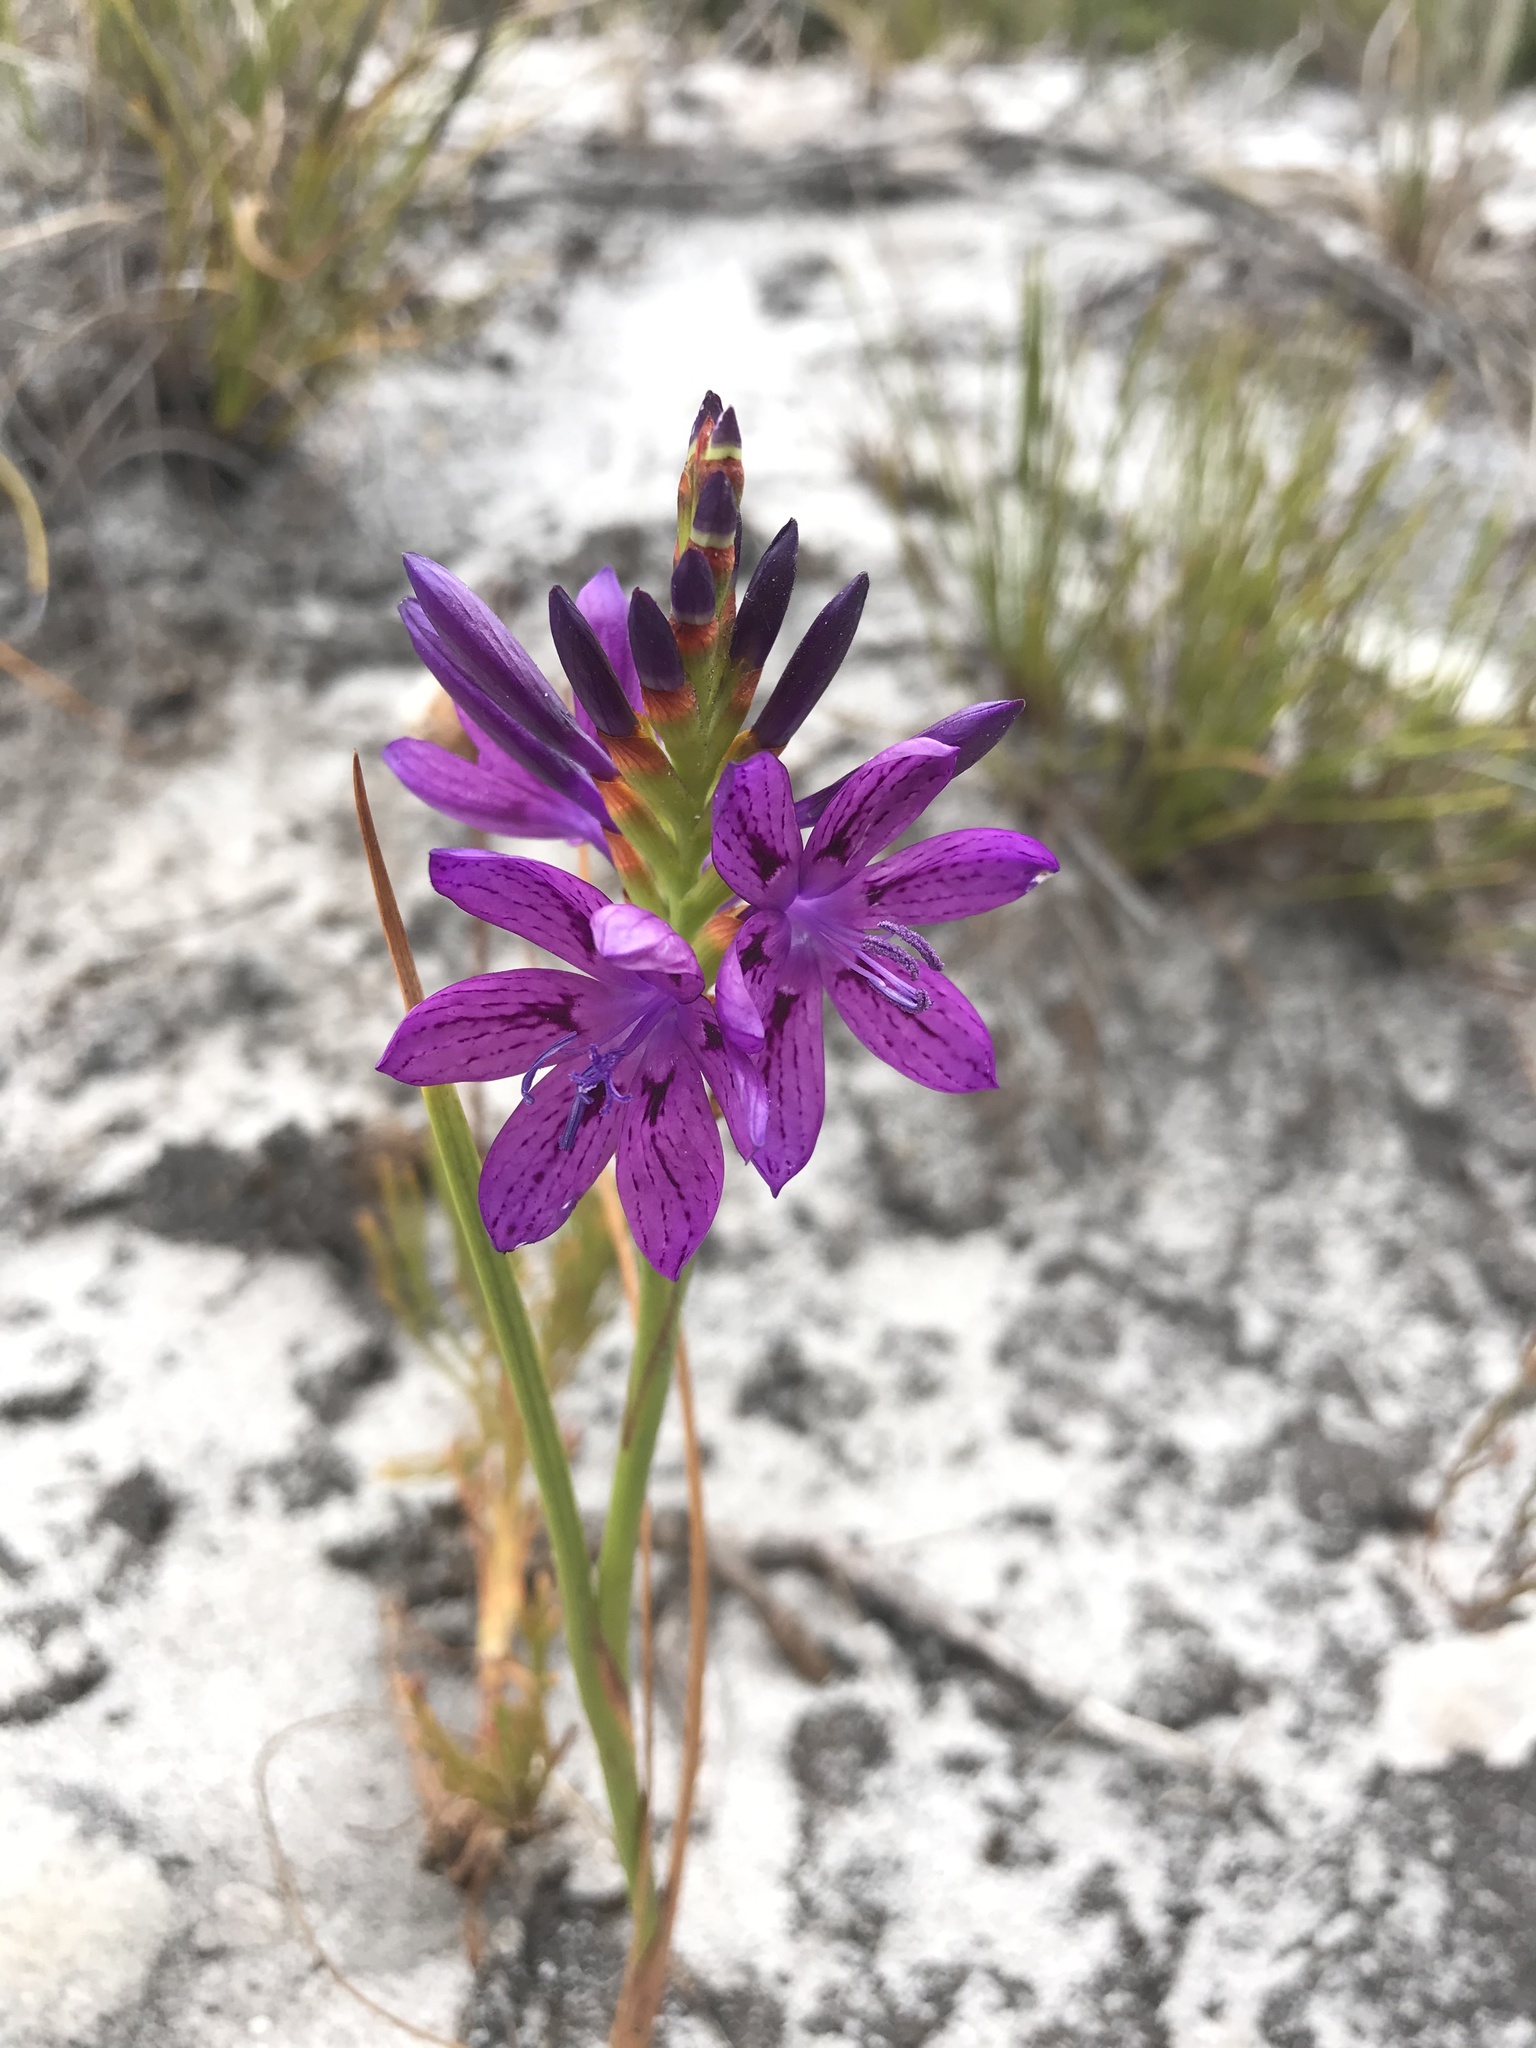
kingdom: Plantae
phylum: Tracheophyta
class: Liliopsida
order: Asparagales
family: Iridaceae
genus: Thereianthus
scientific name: Thereianthus bracteolatus
